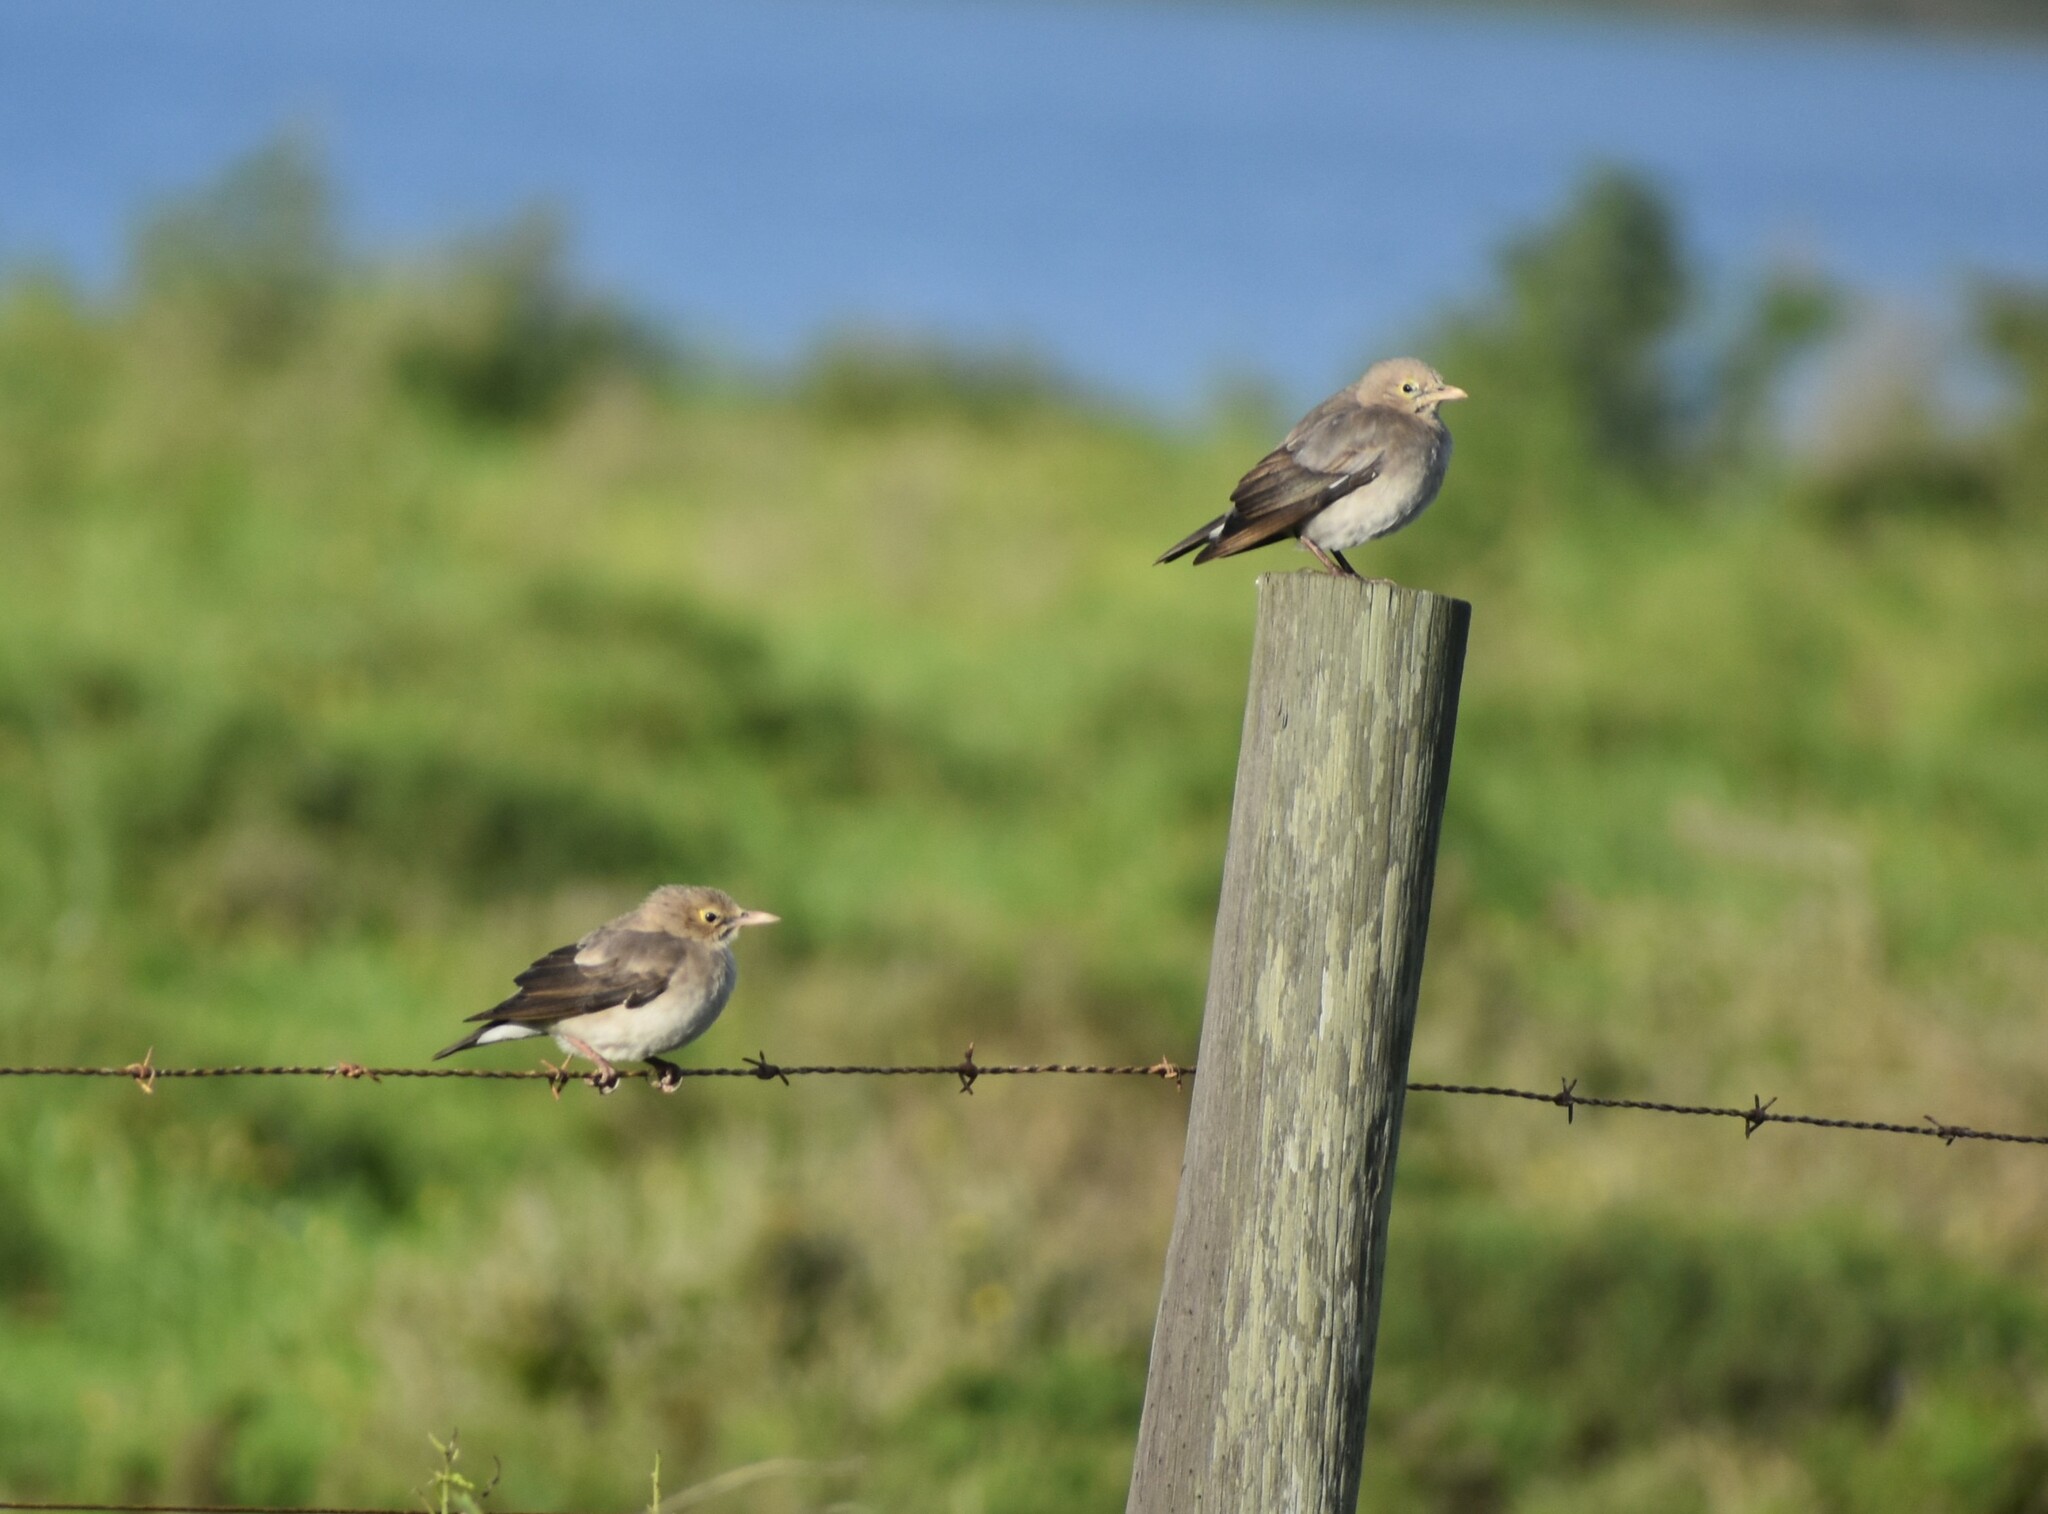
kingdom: Animalia
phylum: Chordata
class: Aves
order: Passeriformes
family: Sturnidae
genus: Creatophora
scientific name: Creatophora cinerea
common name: Wattled starling
